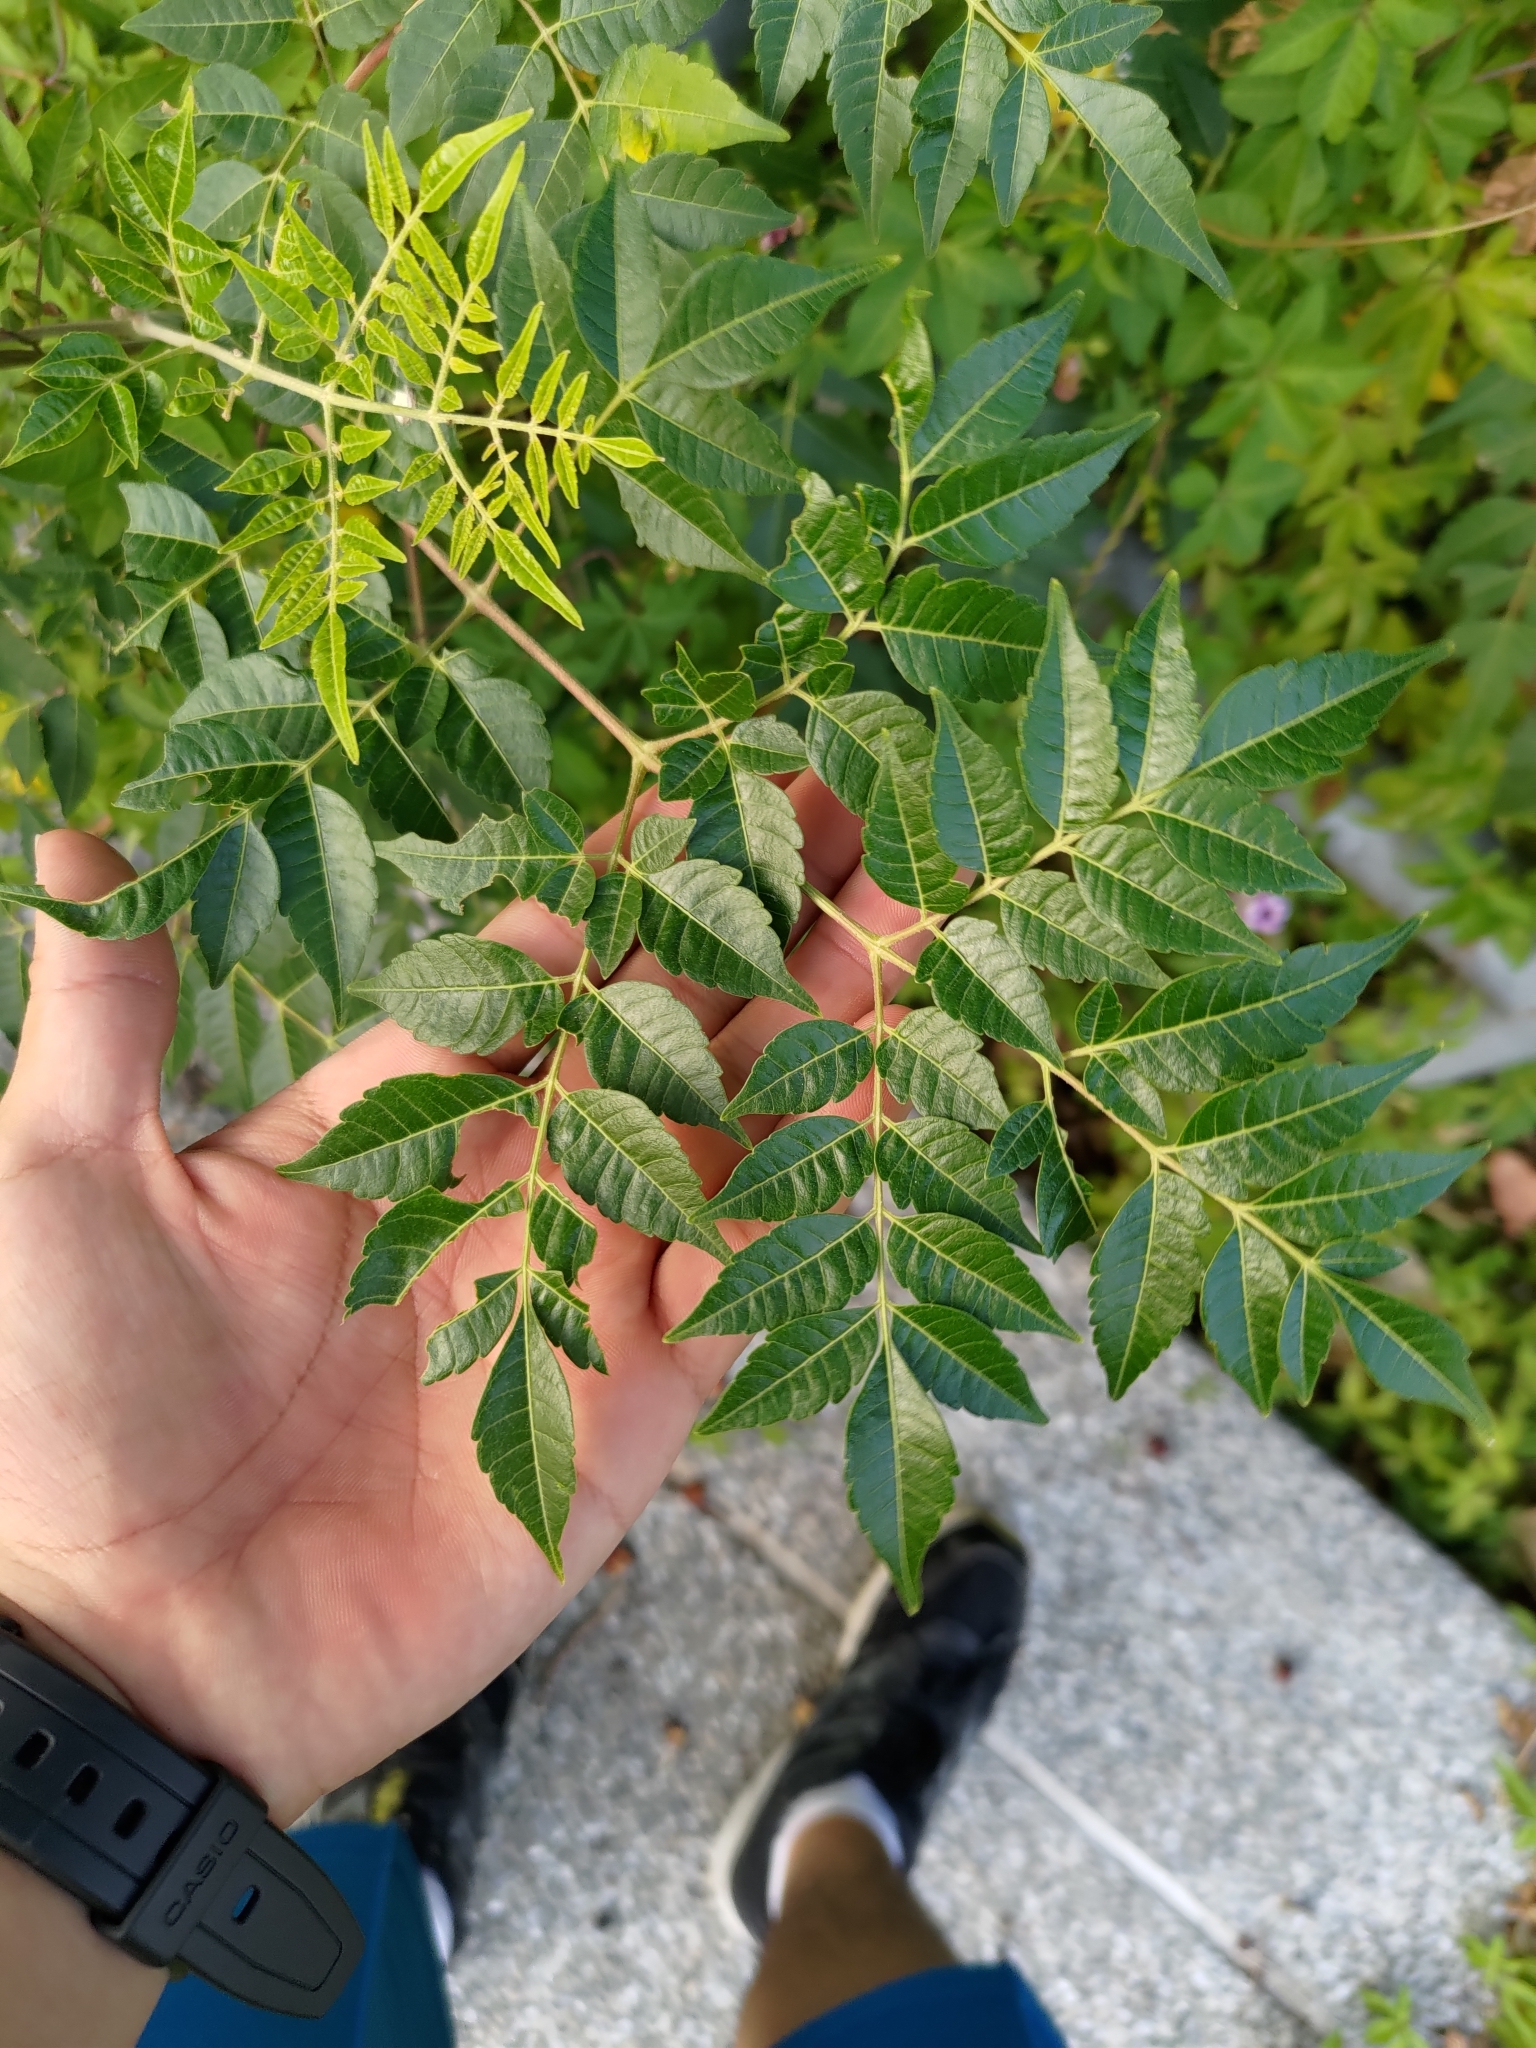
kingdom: Plantae
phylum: Tracheophyta
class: Magnoliopsida
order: Sapindales
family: Meliaceae
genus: Melia
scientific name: Melia azedarach
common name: Chinaberrytree
